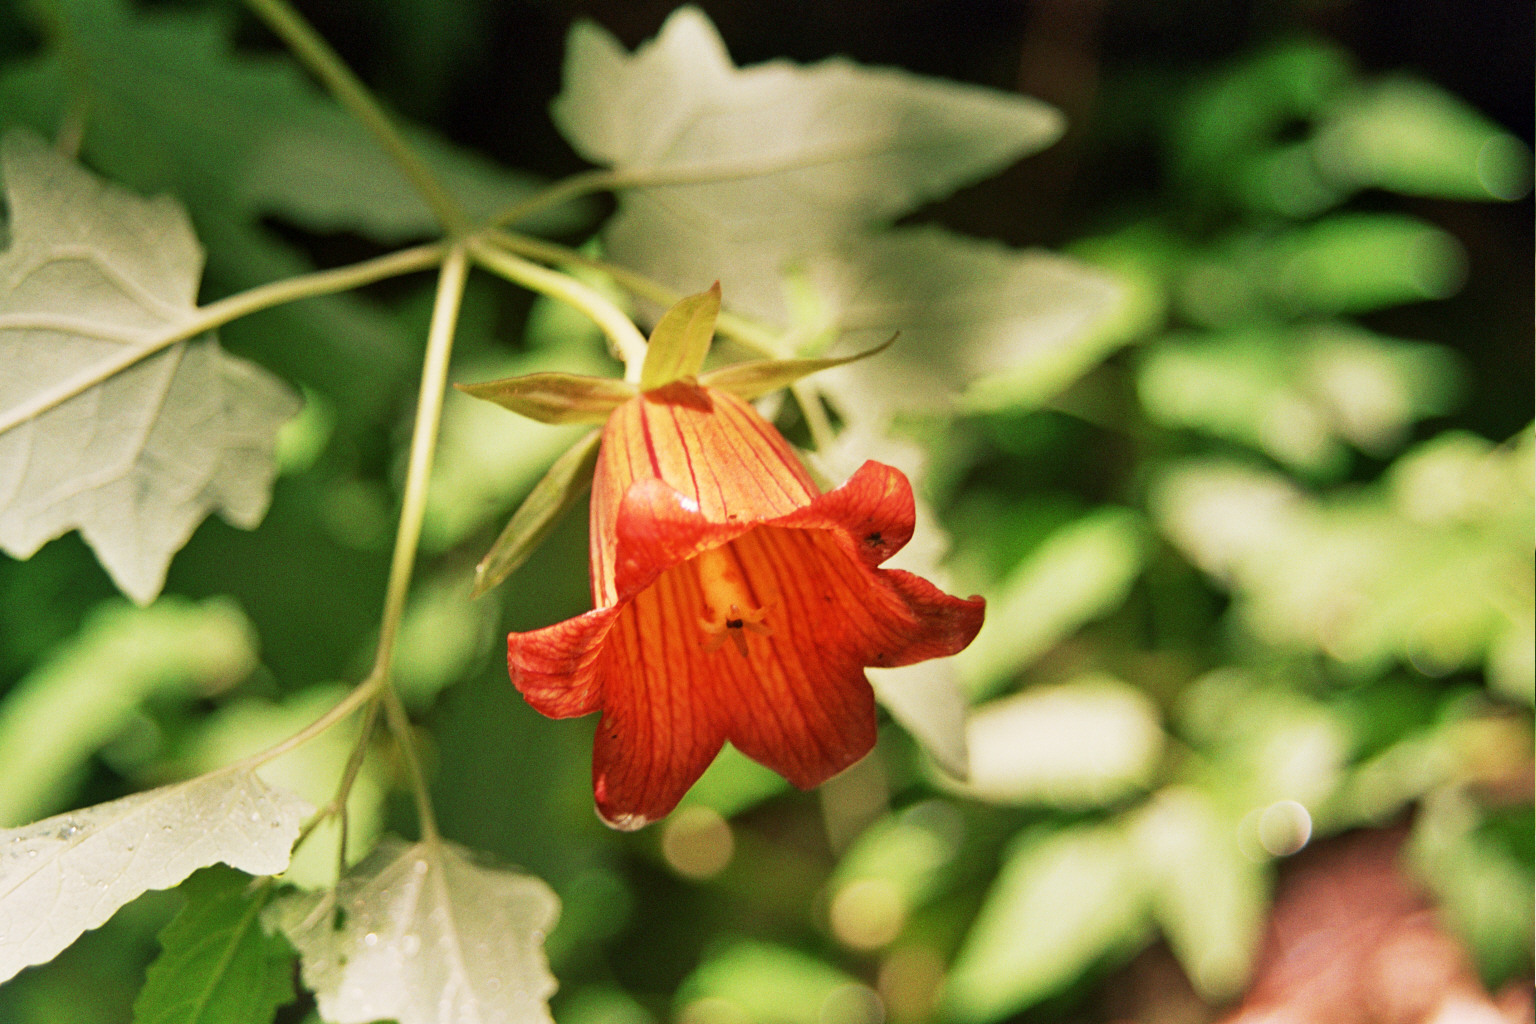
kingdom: Plantae
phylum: Tracheophyta
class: Magnoliopsida
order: Asterales
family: Campanulaceae
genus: Canarina
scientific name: Canarina canariensis
